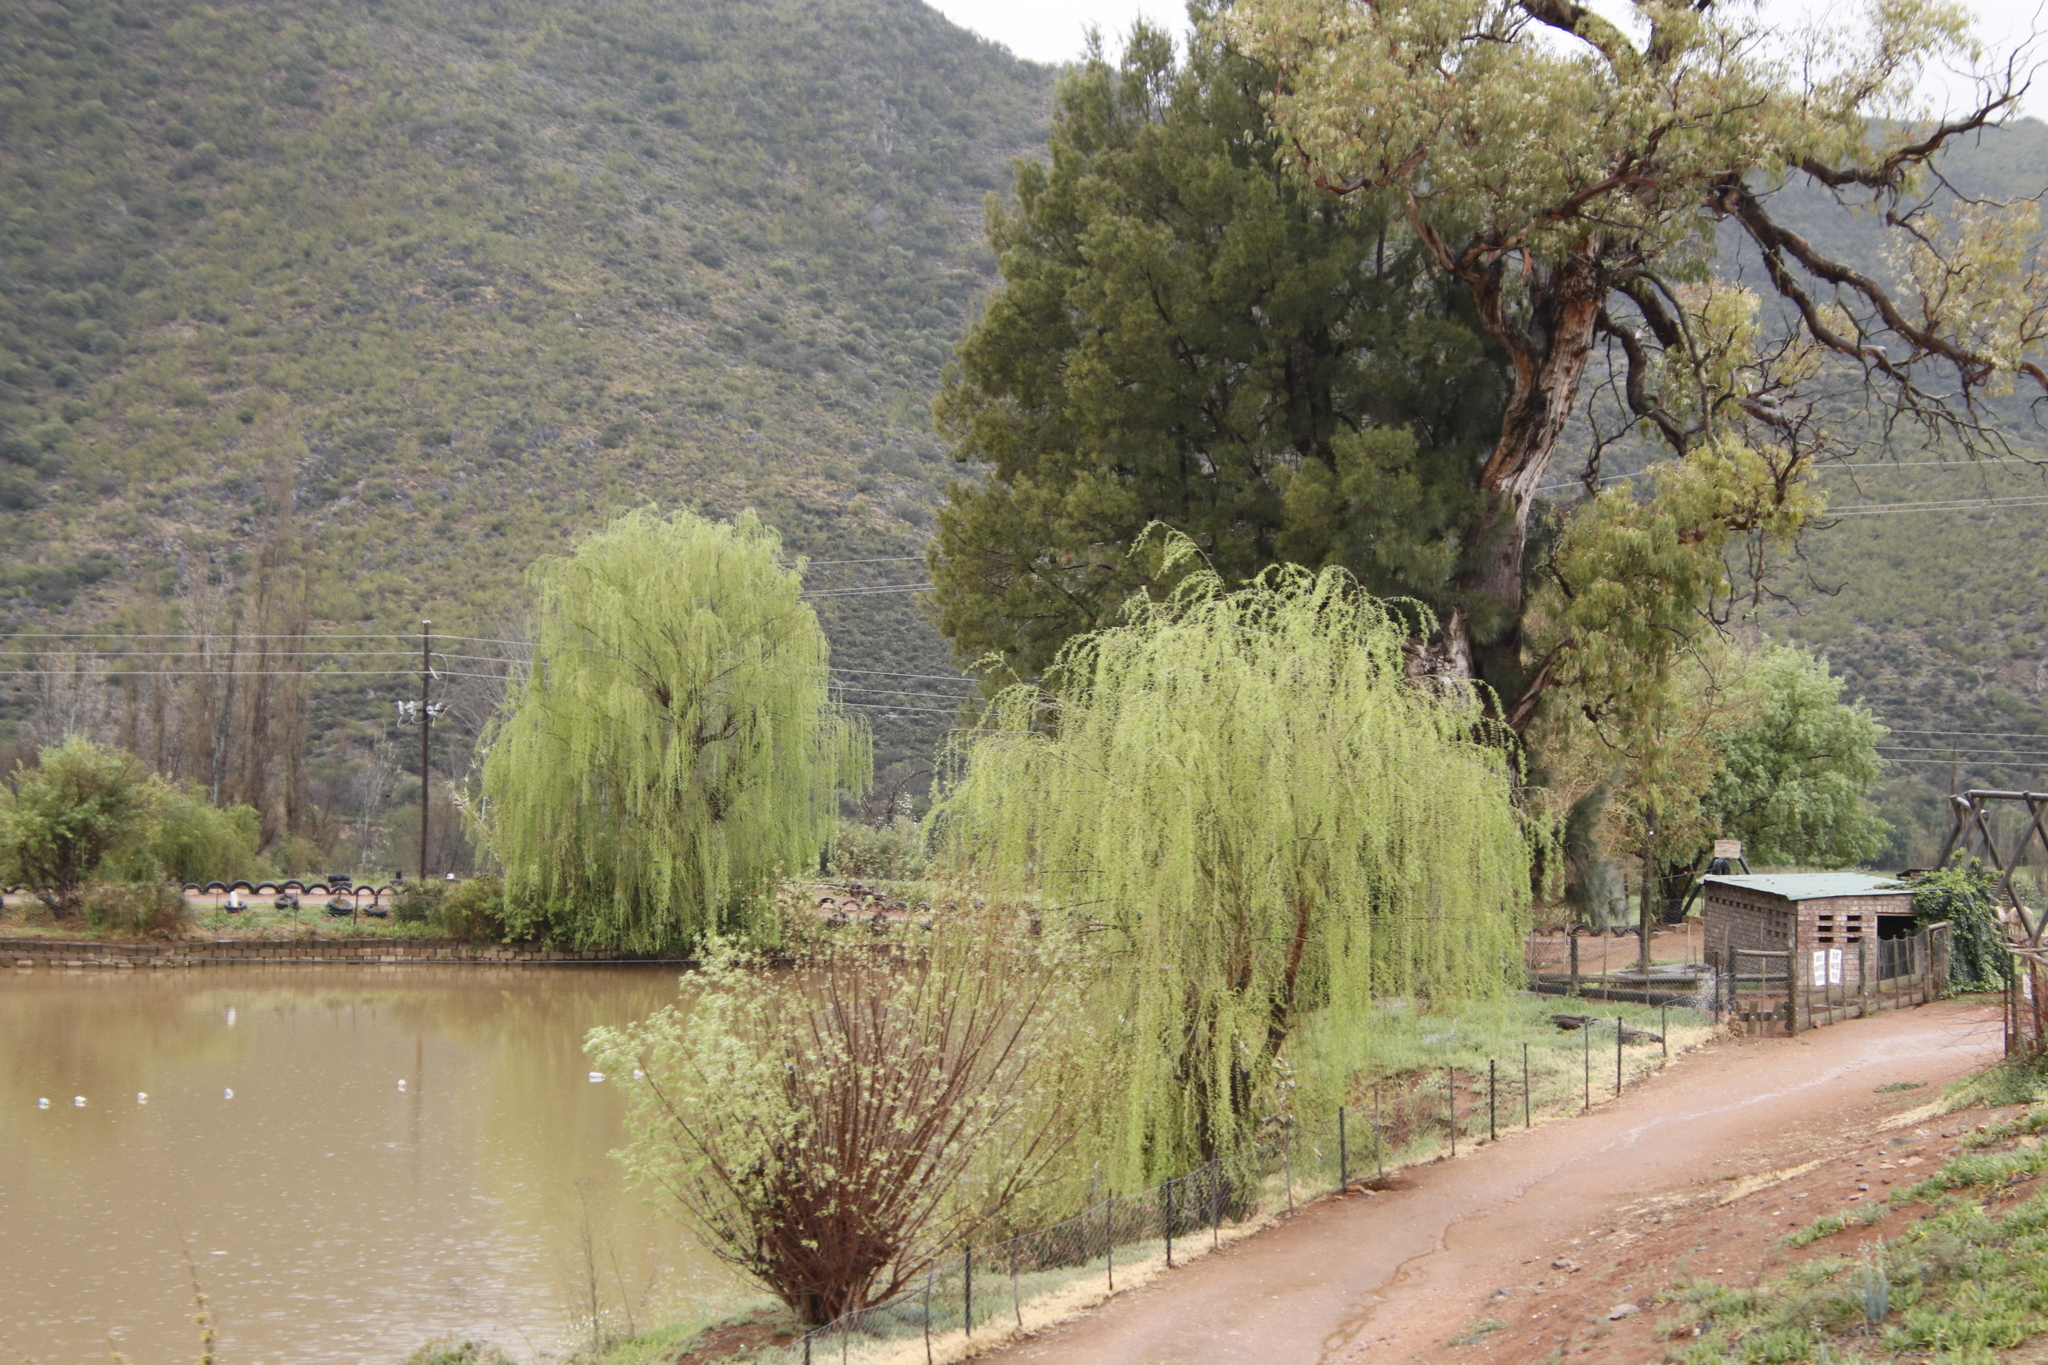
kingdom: Plantae
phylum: Tracheophyta
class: Magnoliopsida
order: Malpighiales
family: Salicaceae
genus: Salix
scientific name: Salix babylonica
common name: Weeping willow
